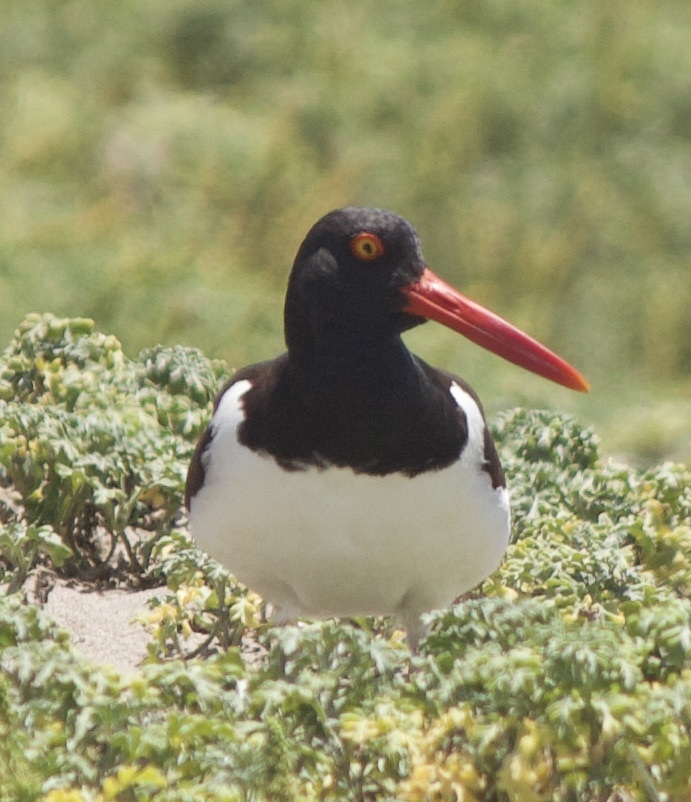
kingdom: Animalia
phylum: Chordata
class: Aves
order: Charadriiformes
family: Haematopodidae
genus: Haematopus
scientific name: Haematopus palliatus
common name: American oystercatcher
